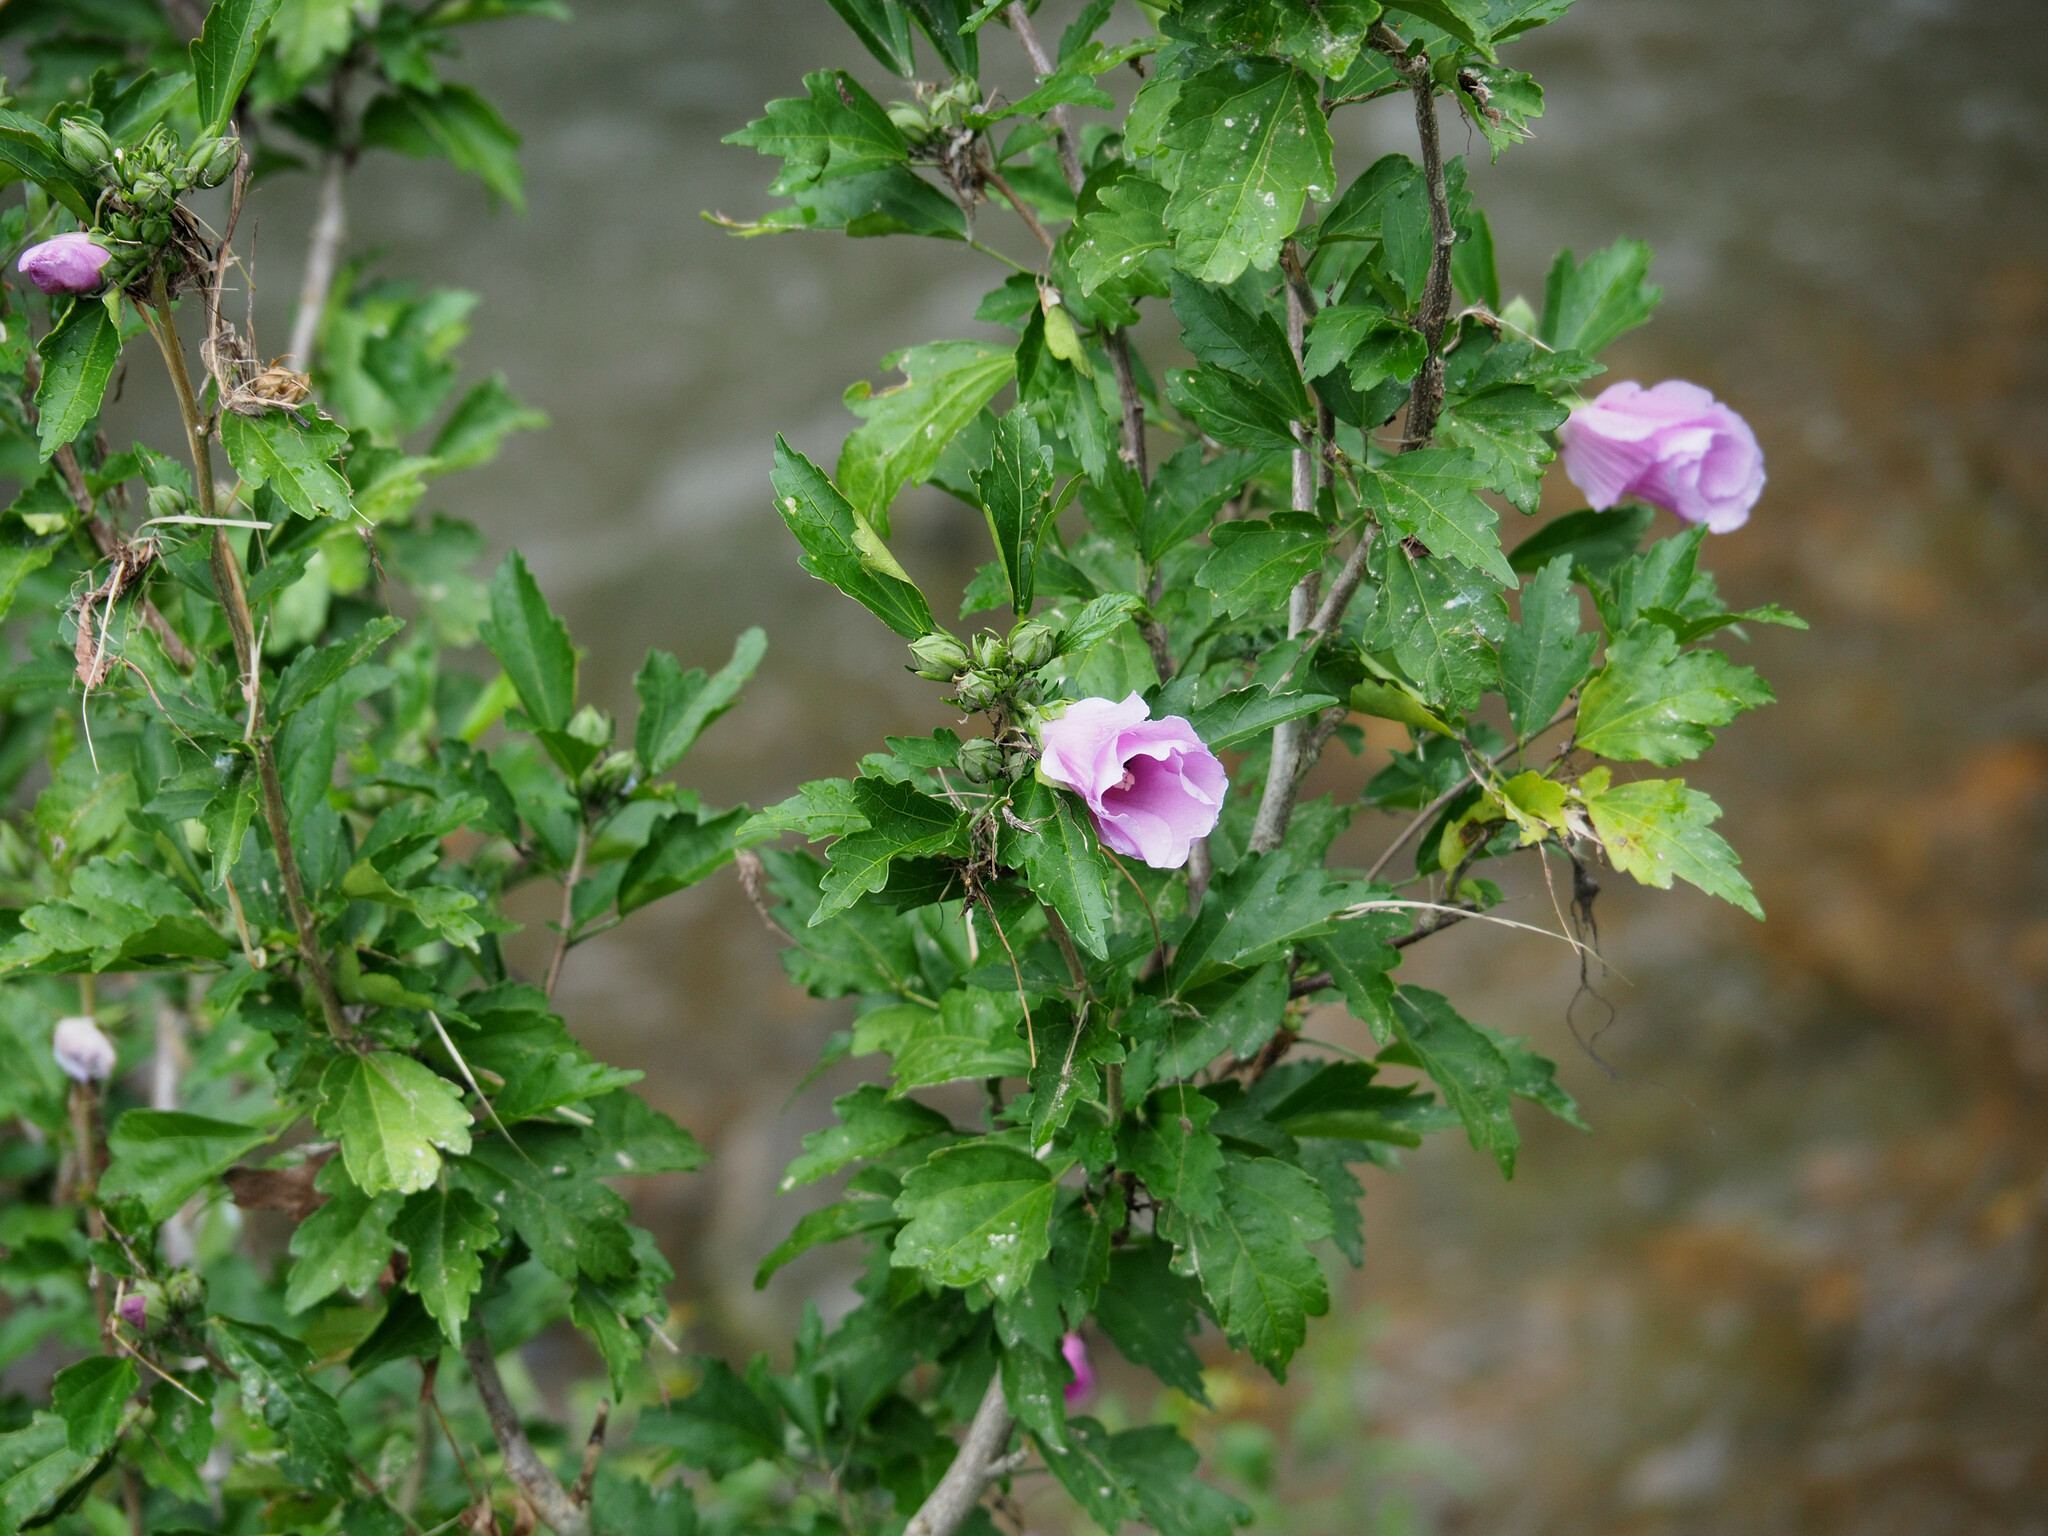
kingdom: Plantae
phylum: Tracheophyta
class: Magnoliopsida
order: Malvales
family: Malvaceae
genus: Hibiscus
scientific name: Hibiscus syriacus
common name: Syrian ketmia
